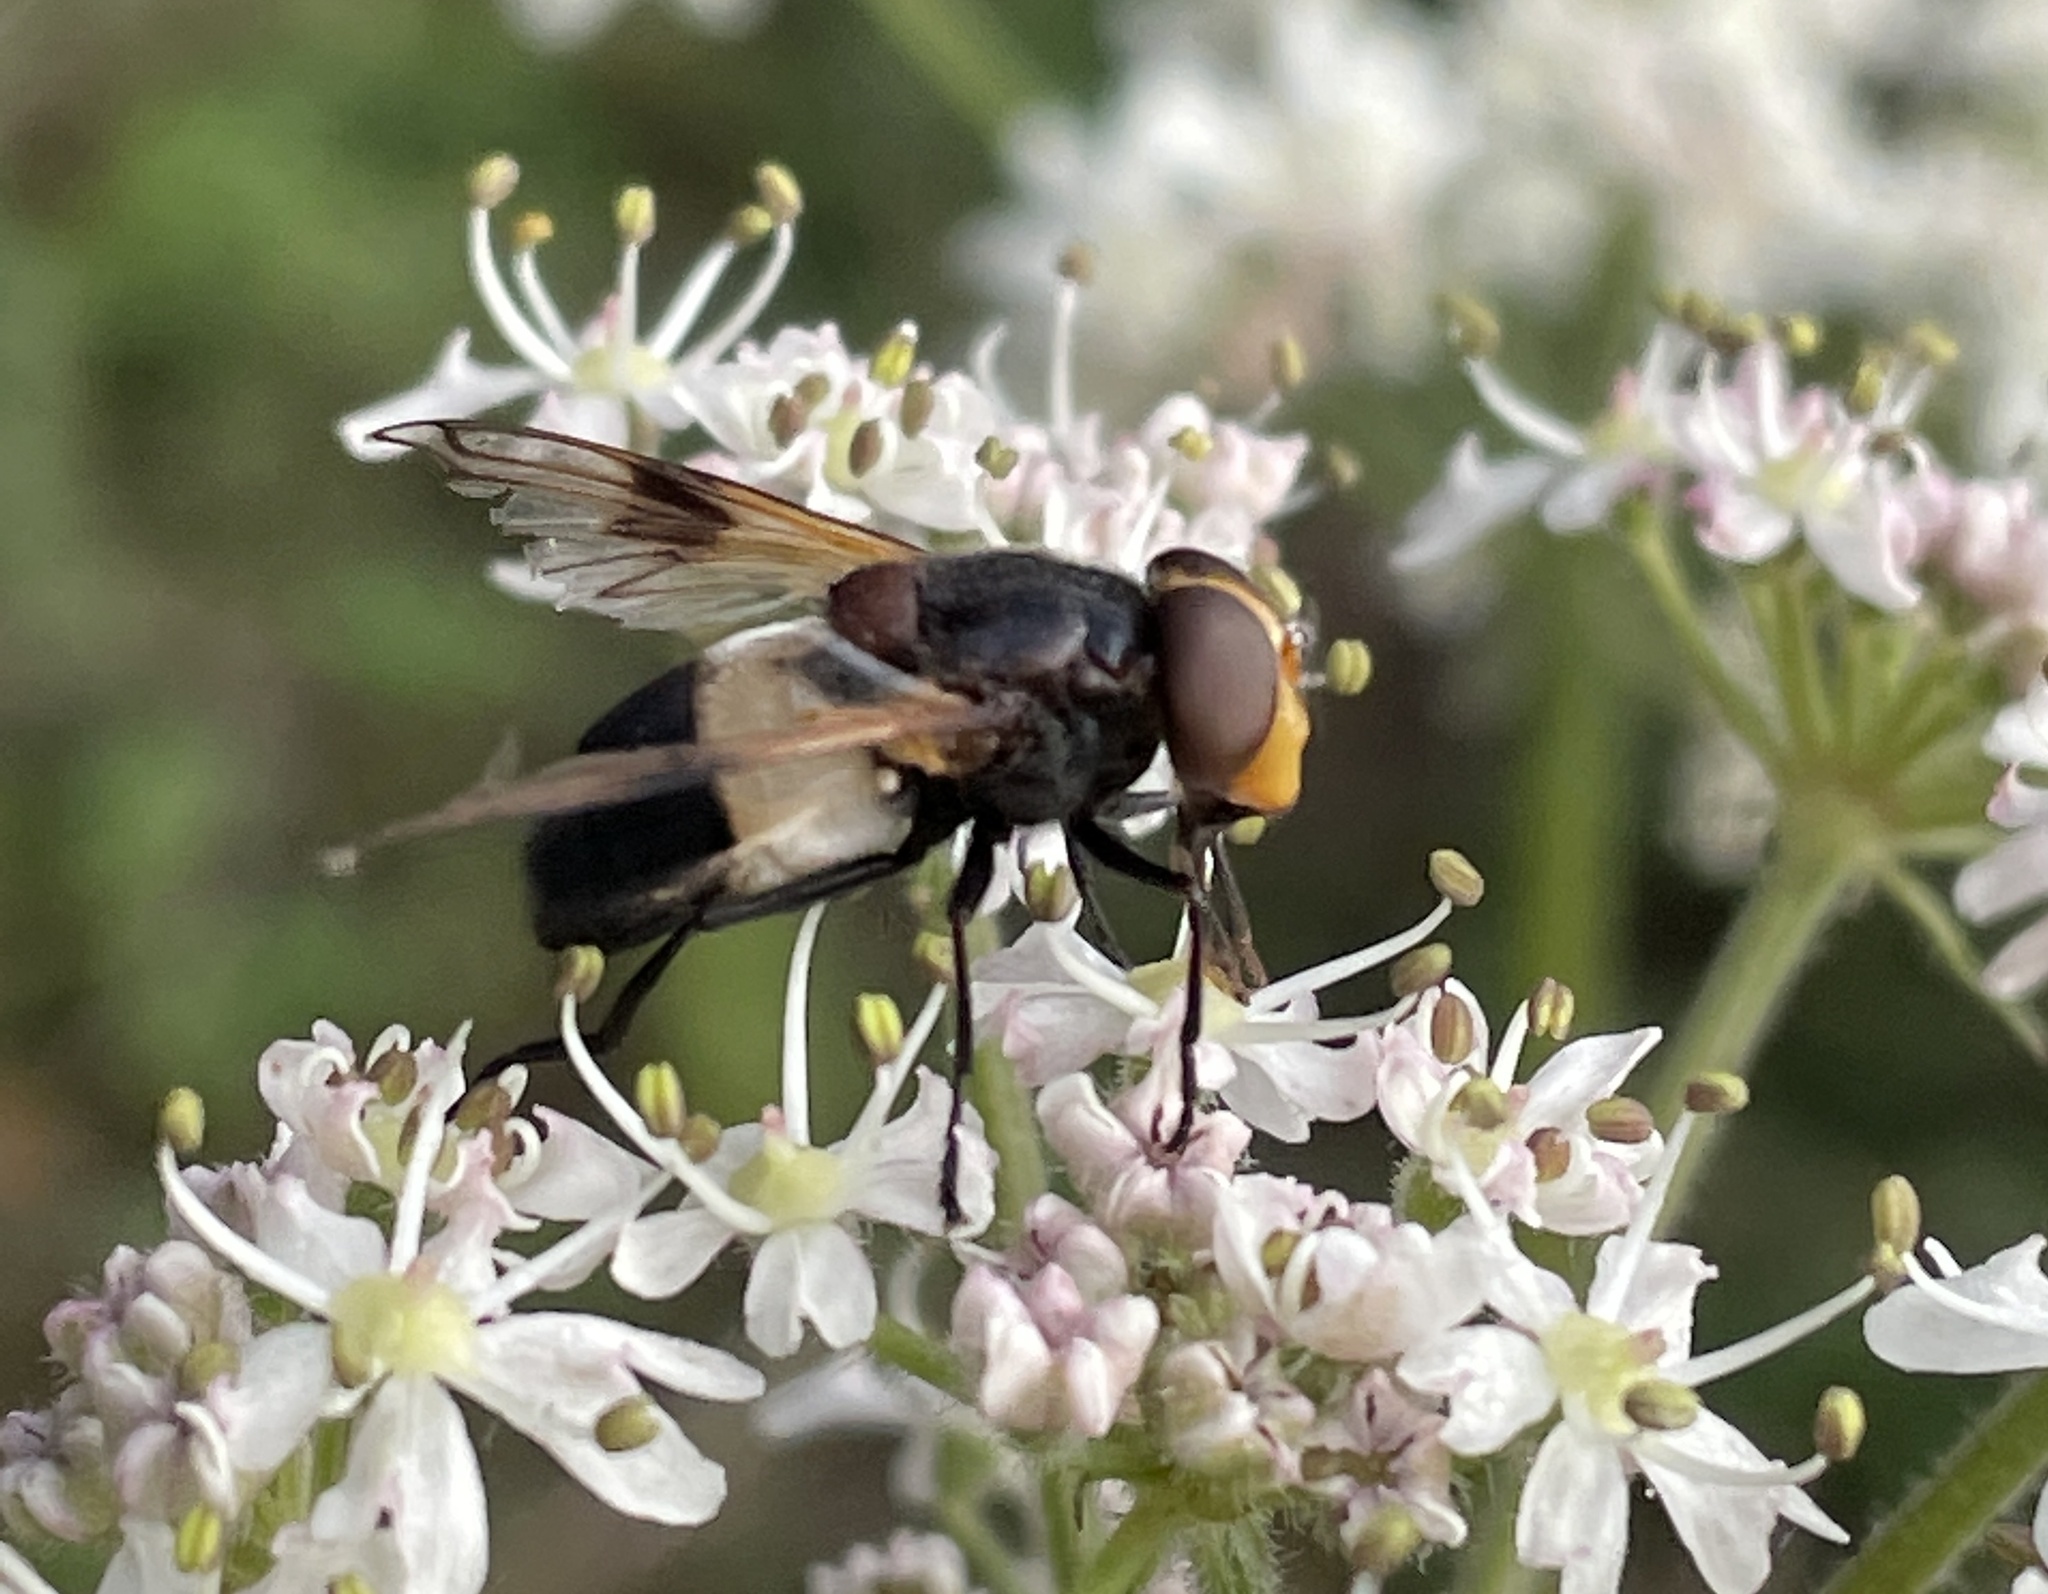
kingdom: Animalia
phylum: Arthropoda
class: Insecta
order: Diptera
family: Syrphidae
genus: Volucella
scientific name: Volucella pellucens
